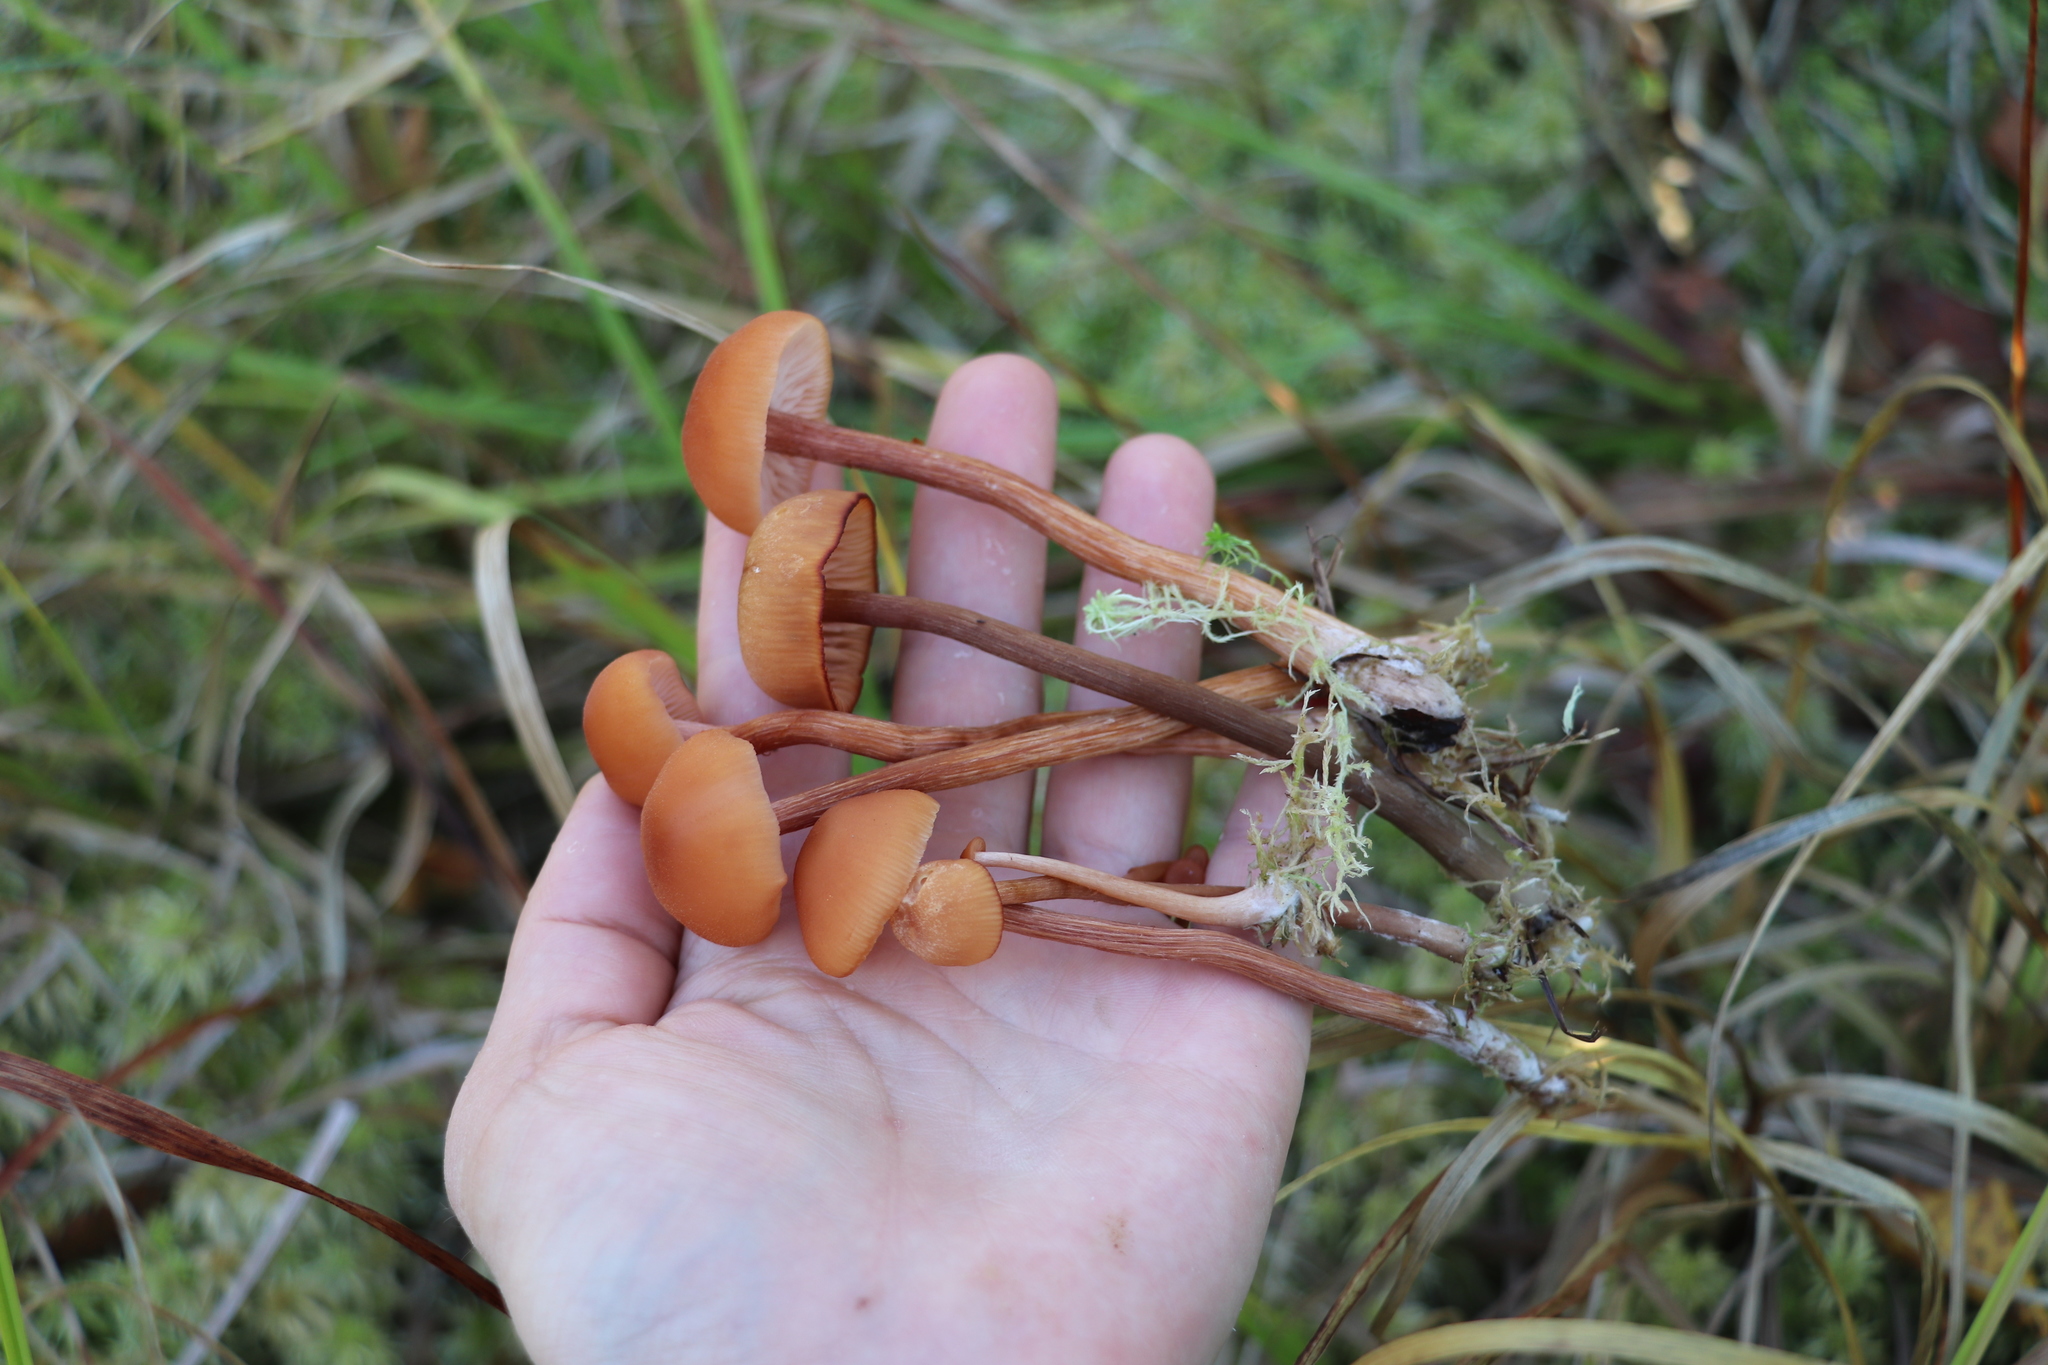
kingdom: Fungi
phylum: Basidiomycota
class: Agaricomycetes
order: Agaricales
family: Hydnangiaceae
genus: Laccaria
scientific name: Laccaria laccata
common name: Deceiver
